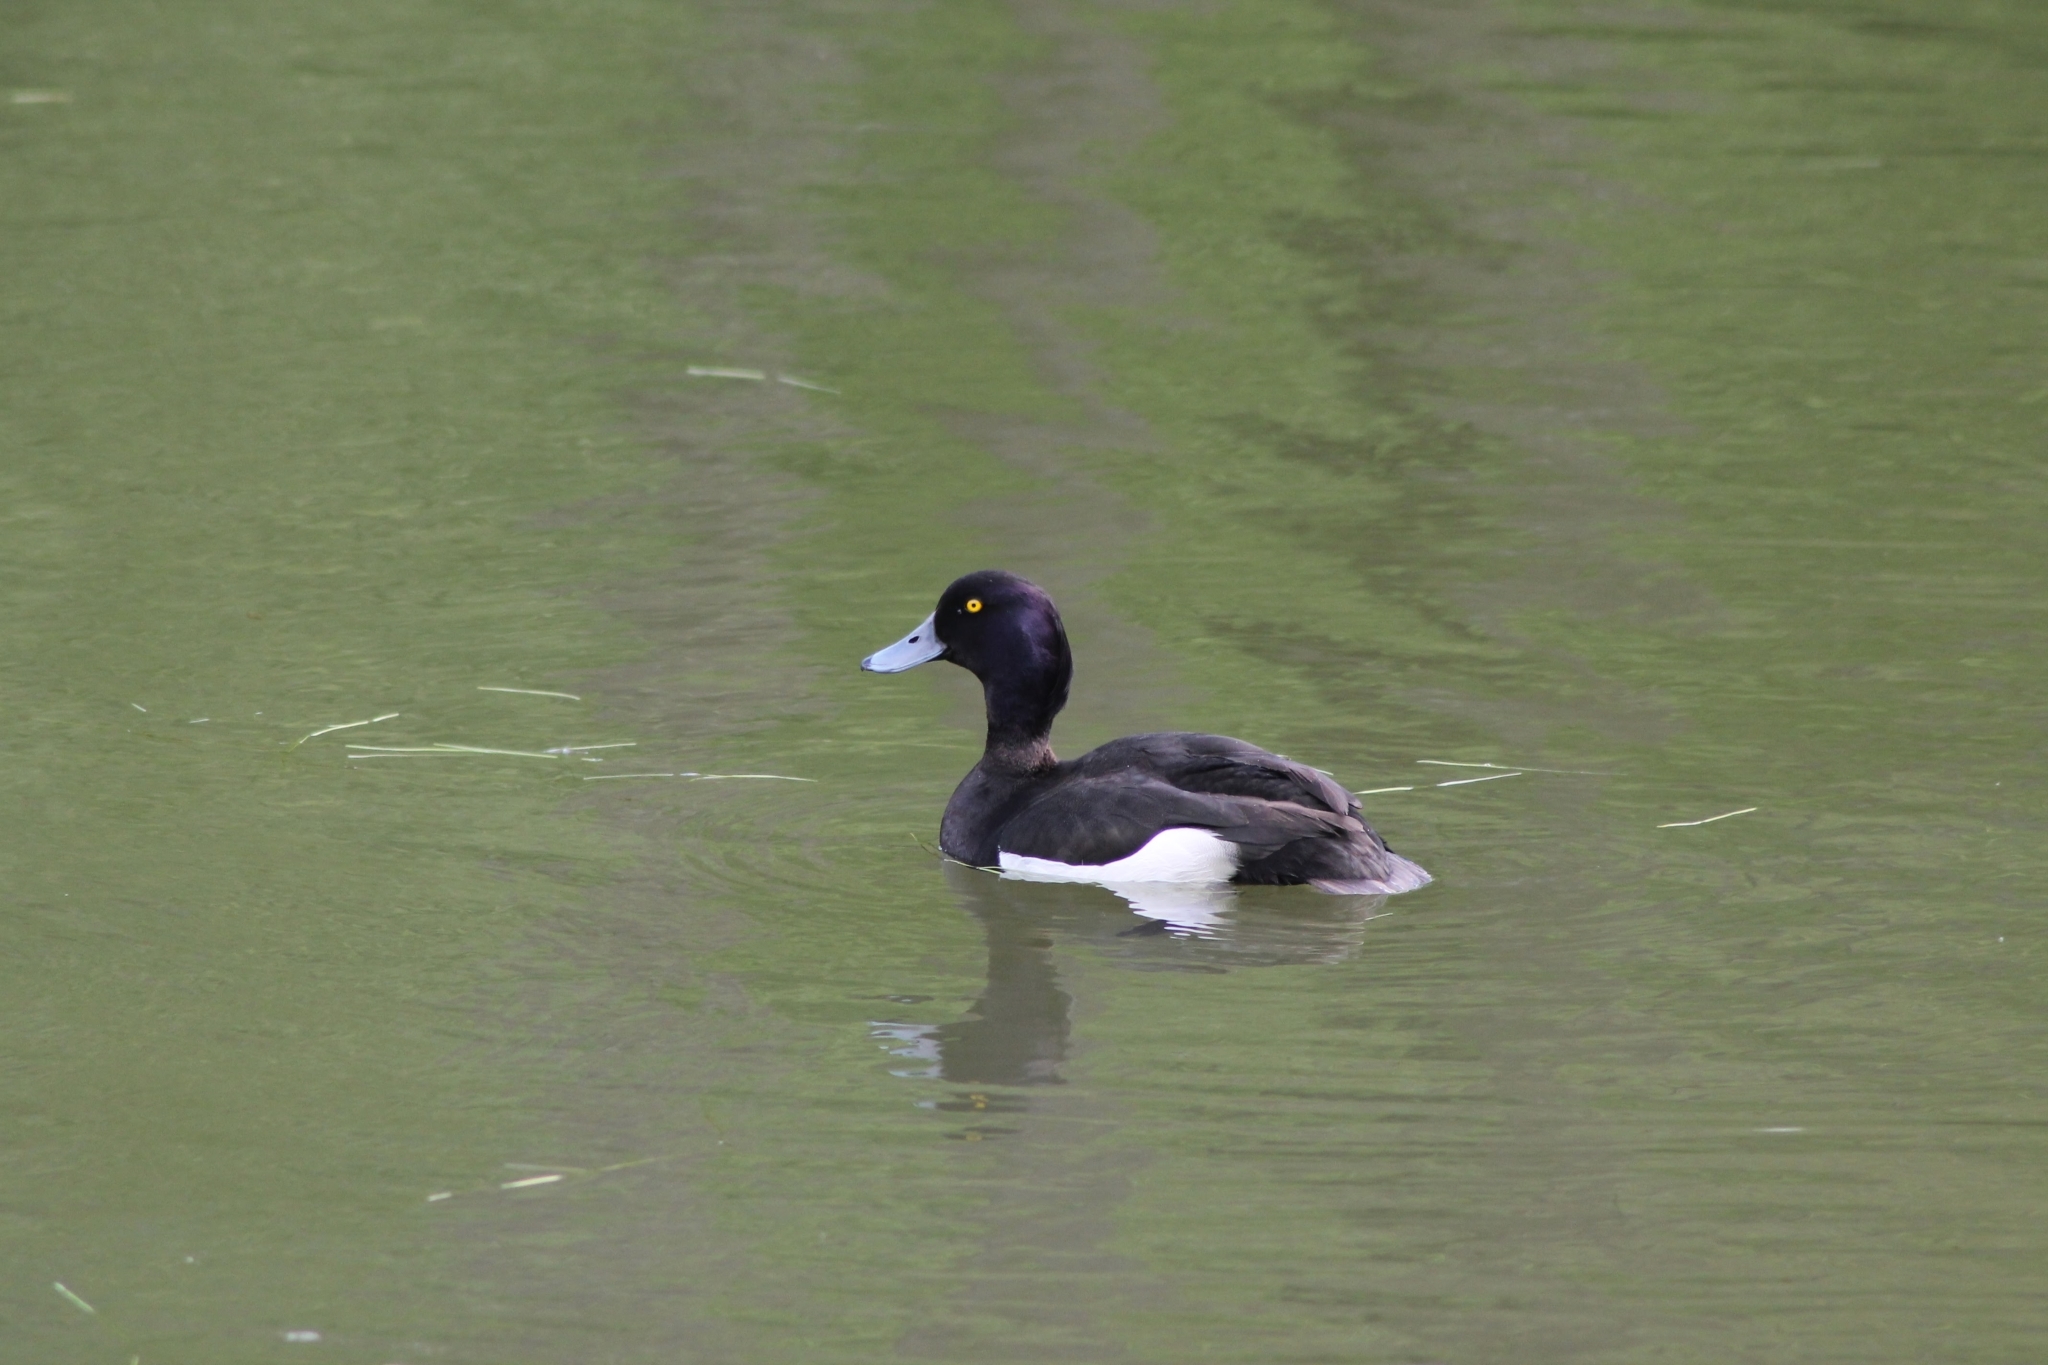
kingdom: Animalia
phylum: Chordata
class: Aves
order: Anseriformes
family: Anatidae
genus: Aythya
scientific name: Aythya fuligula
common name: Tufted duck
